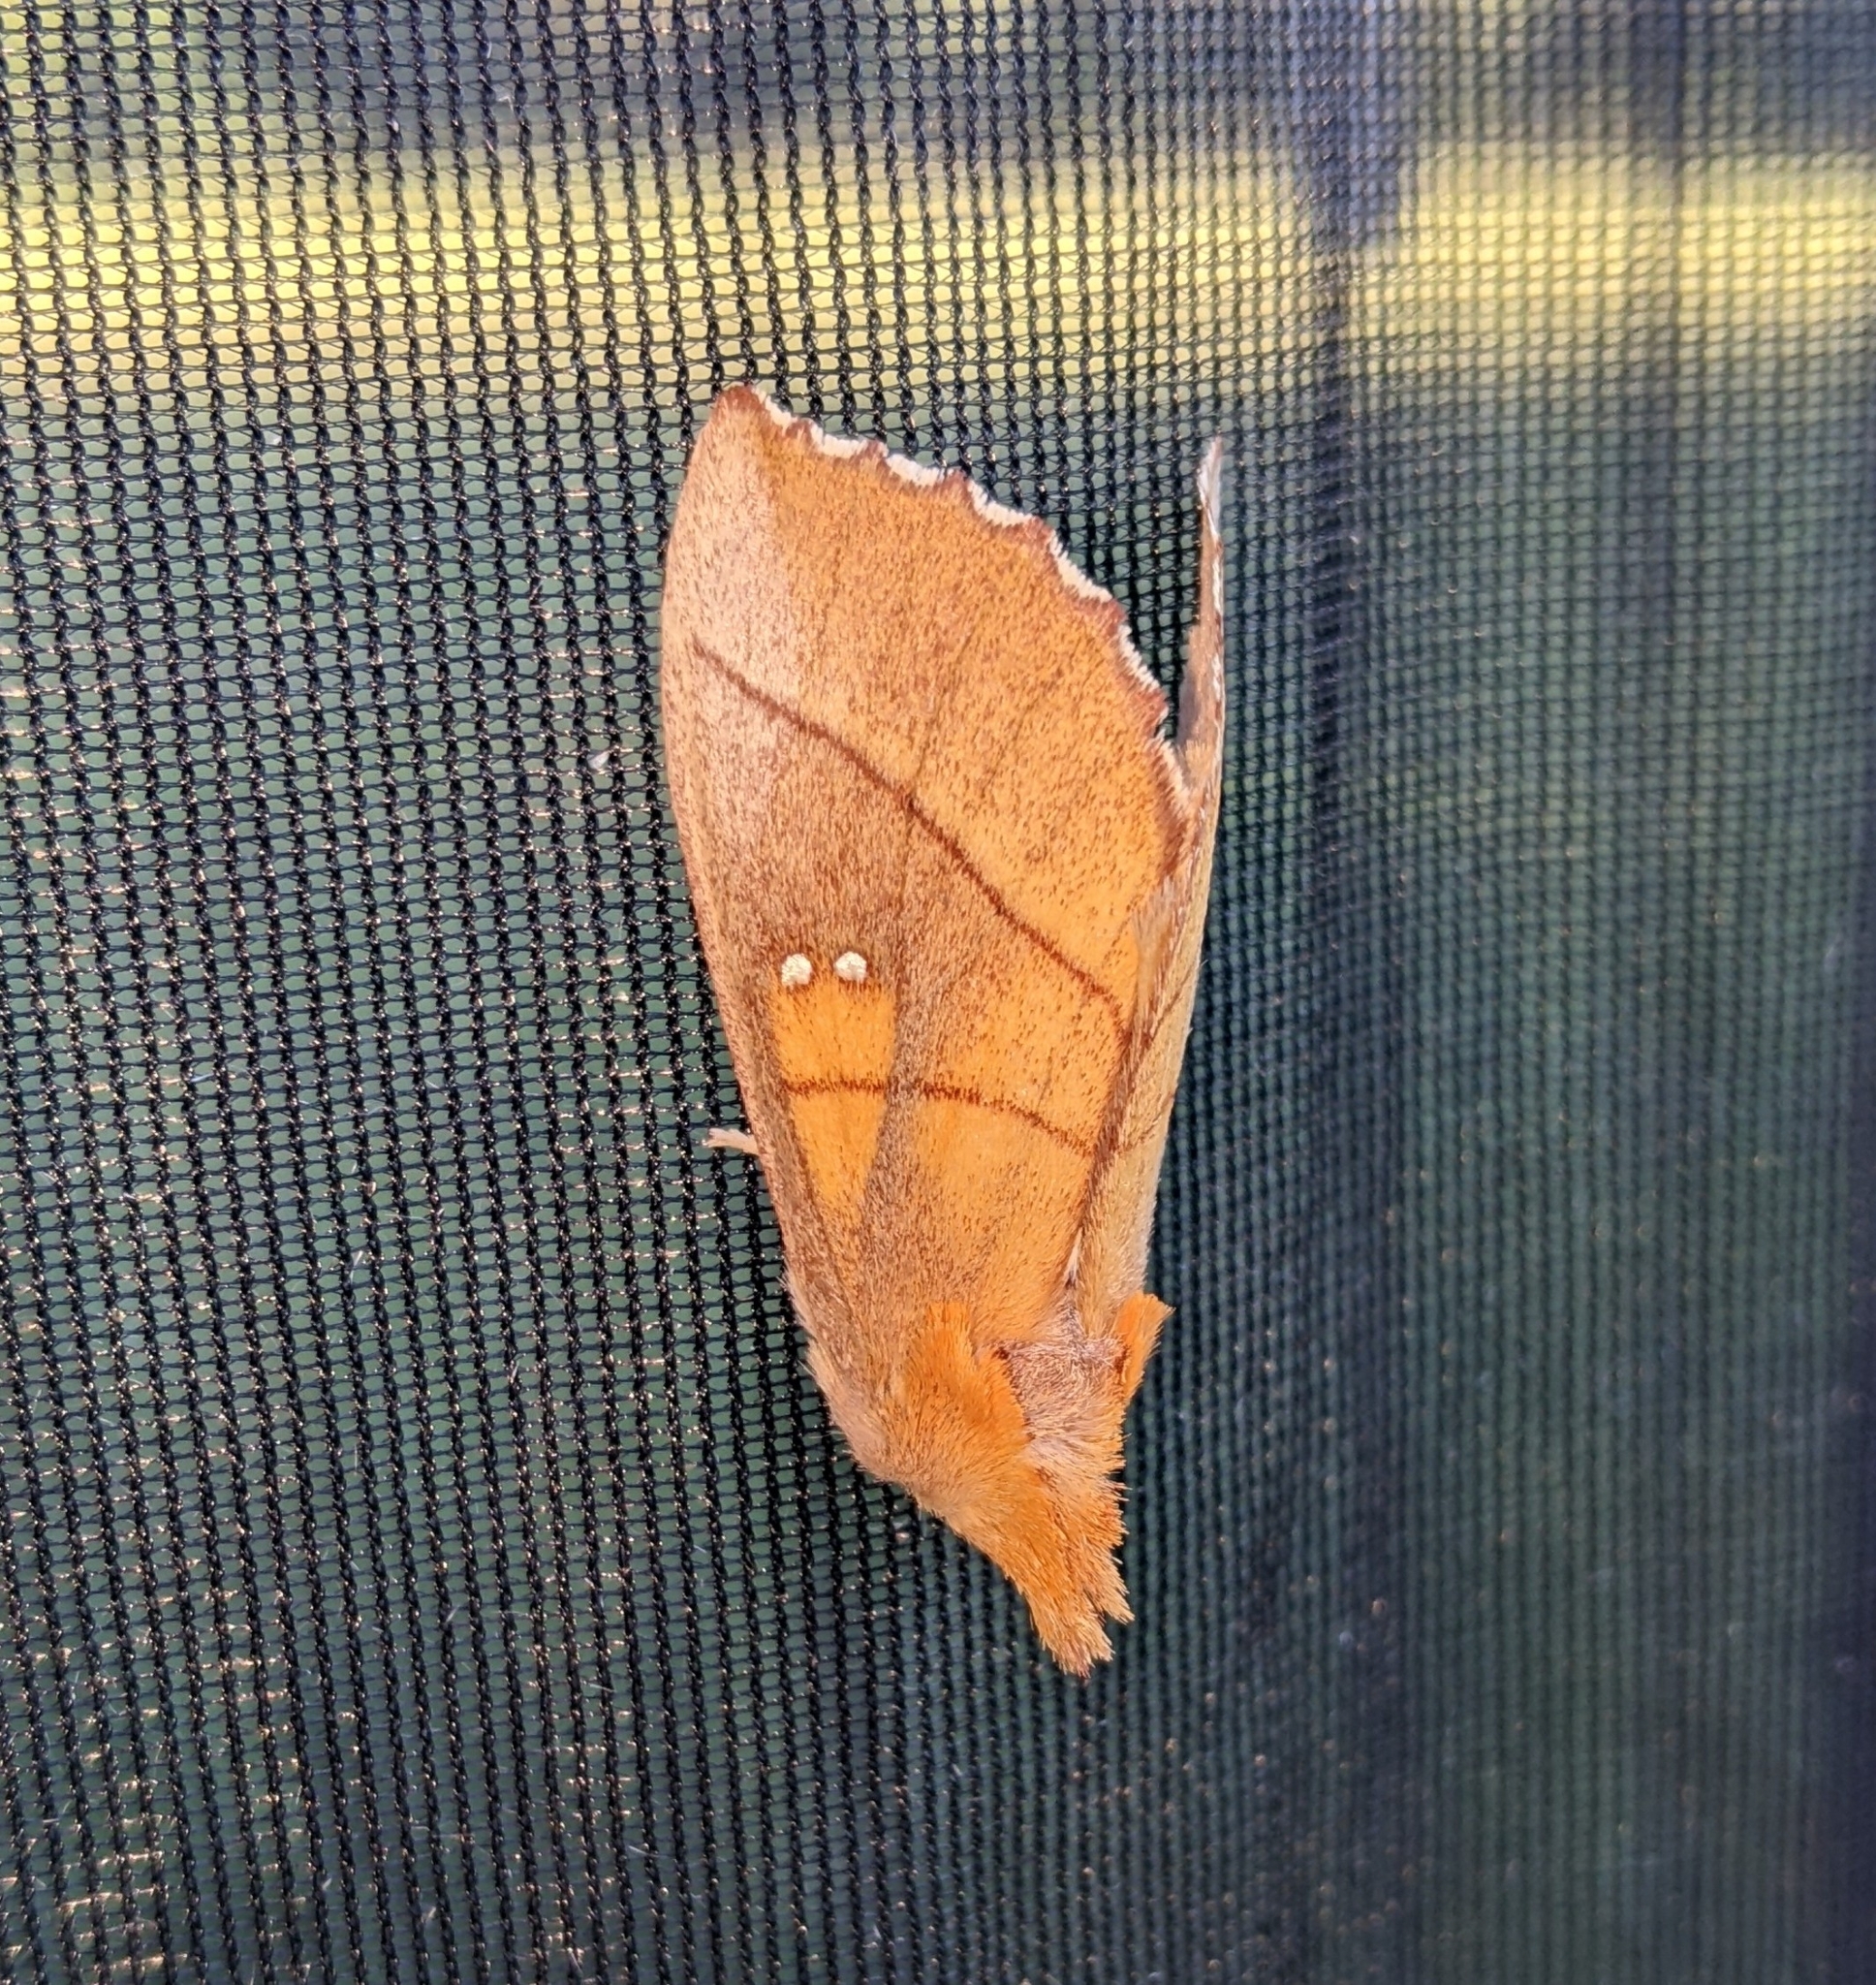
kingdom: Animalia
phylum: Arthropoda
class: Insecta
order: Lepidoptera
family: Notodontidae
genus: Nadata
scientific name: Nadata gibbosa
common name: White-dotted prominent
